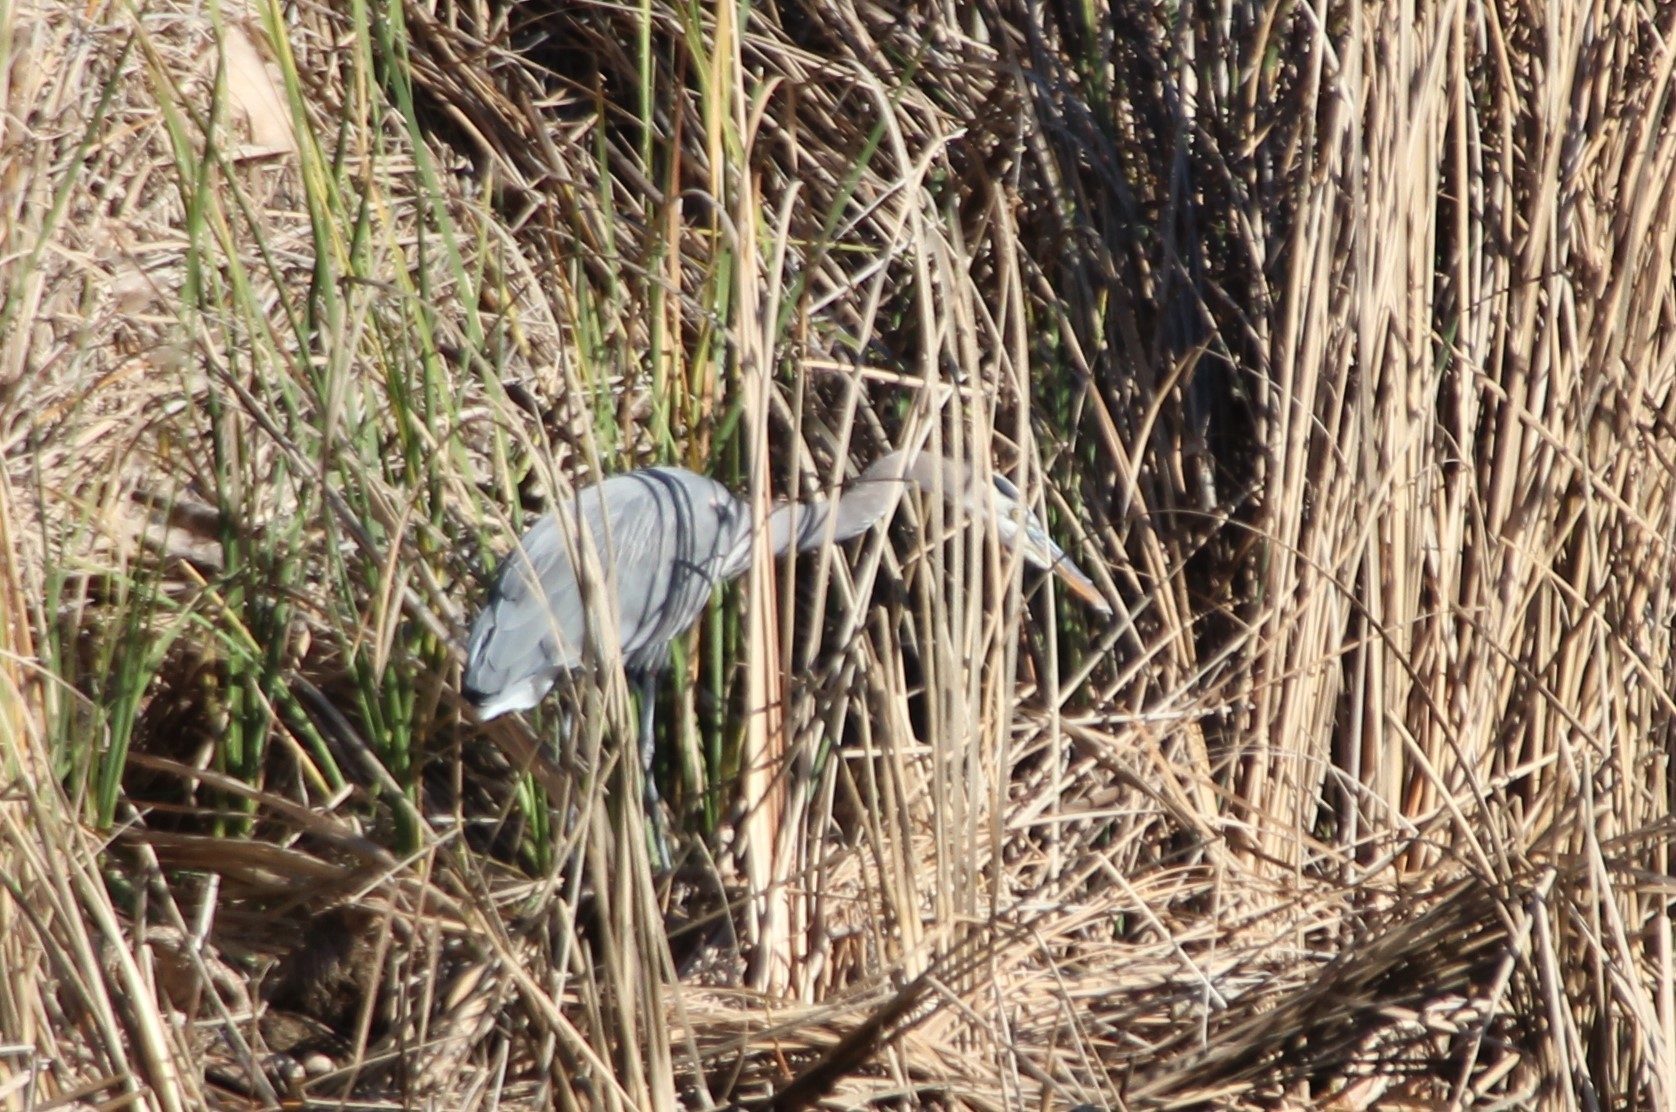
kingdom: Animalia
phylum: Chordata
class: Aves
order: Pelecaniformes
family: Ardeidae
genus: Ardea
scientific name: Ardea herodias
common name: Great blue heron
